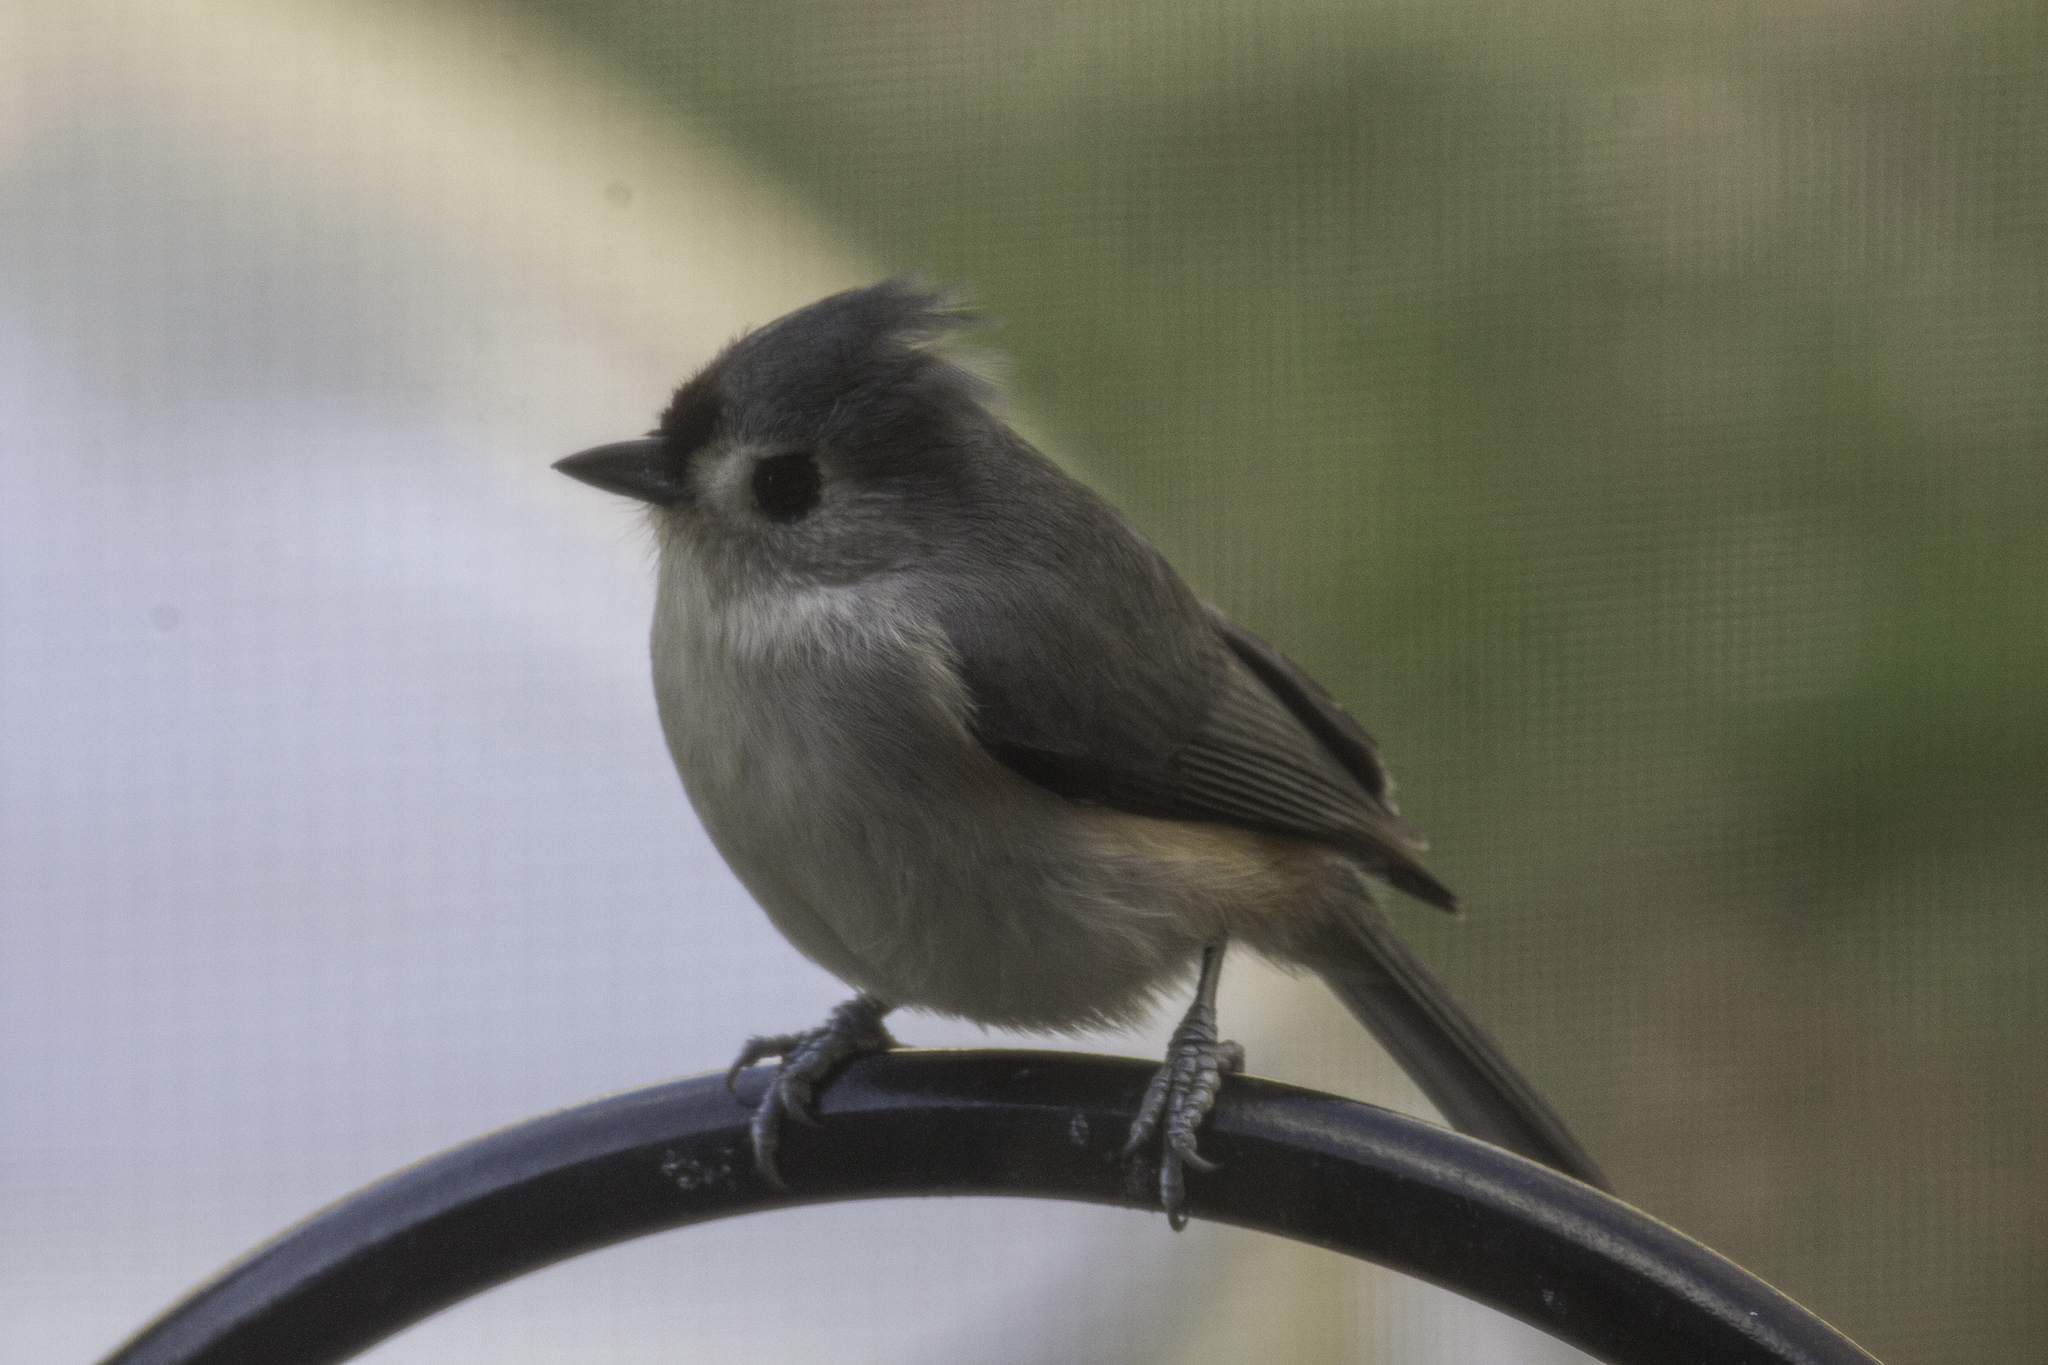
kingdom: Animalia
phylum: Chordata
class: Aves
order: Passeriformes
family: Paridae
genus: Baeolophus
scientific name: Baeolophus bicolor
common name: Tufted titmouse
